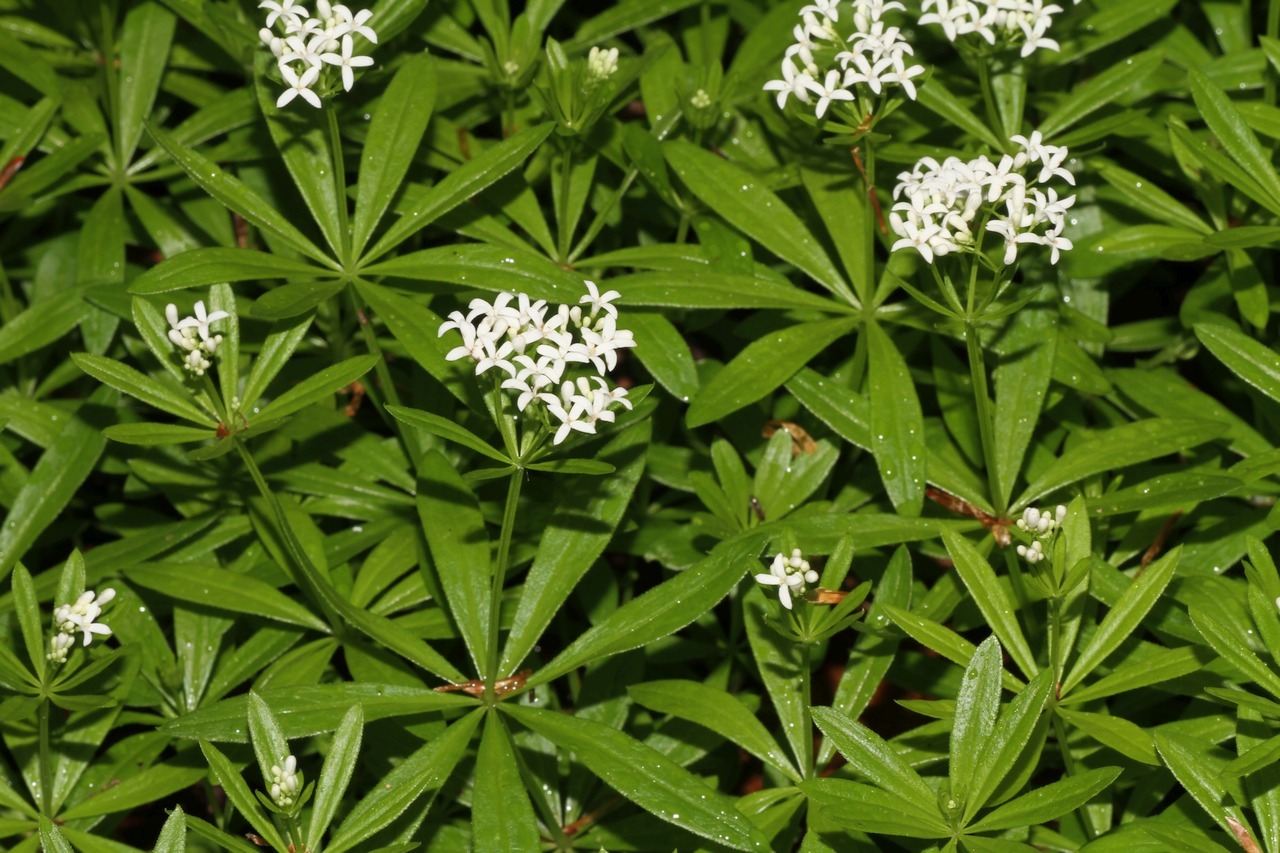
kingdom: Plantae
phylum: Tracheophyta
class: Magnoliopsida
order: Gentianales
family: Rubiaceae
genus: Galium
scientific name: Galium odoratum
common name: Sweet woodruff
